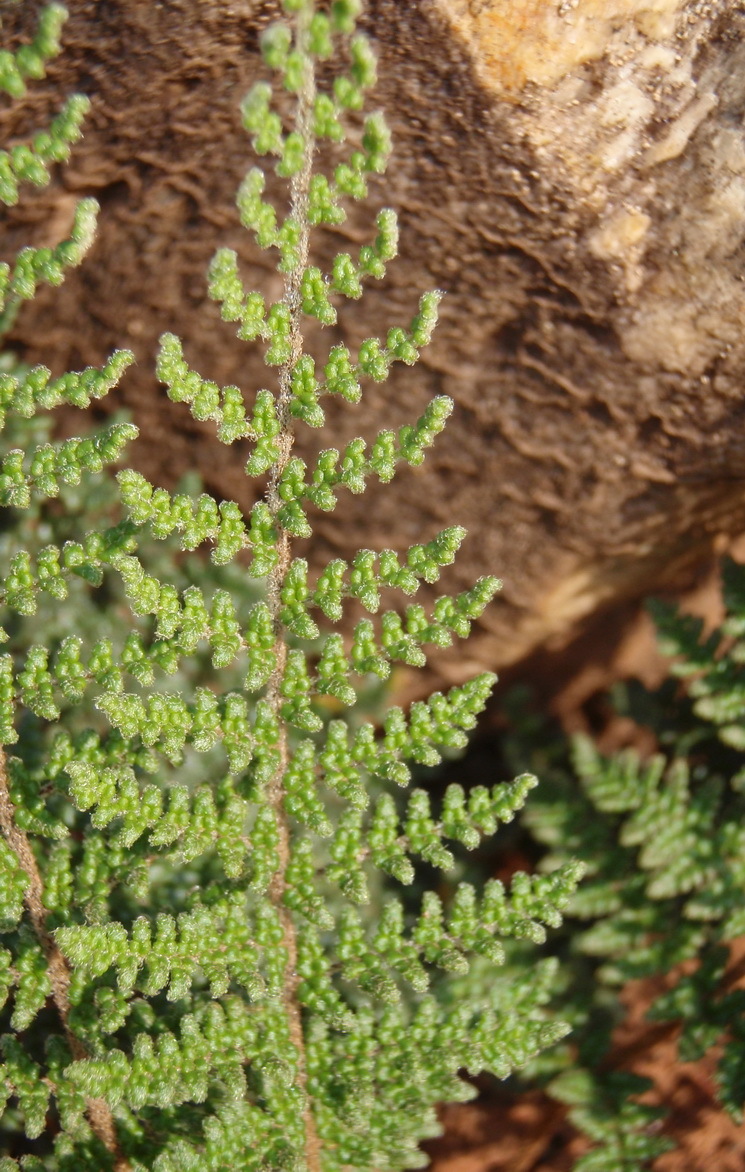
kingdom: Plantae
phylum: Tracheophyta
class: Polypodiopsida
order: Polypodiales
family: Pteridaceae
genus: Cheilanthes
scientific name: Cheilanthes hirta
